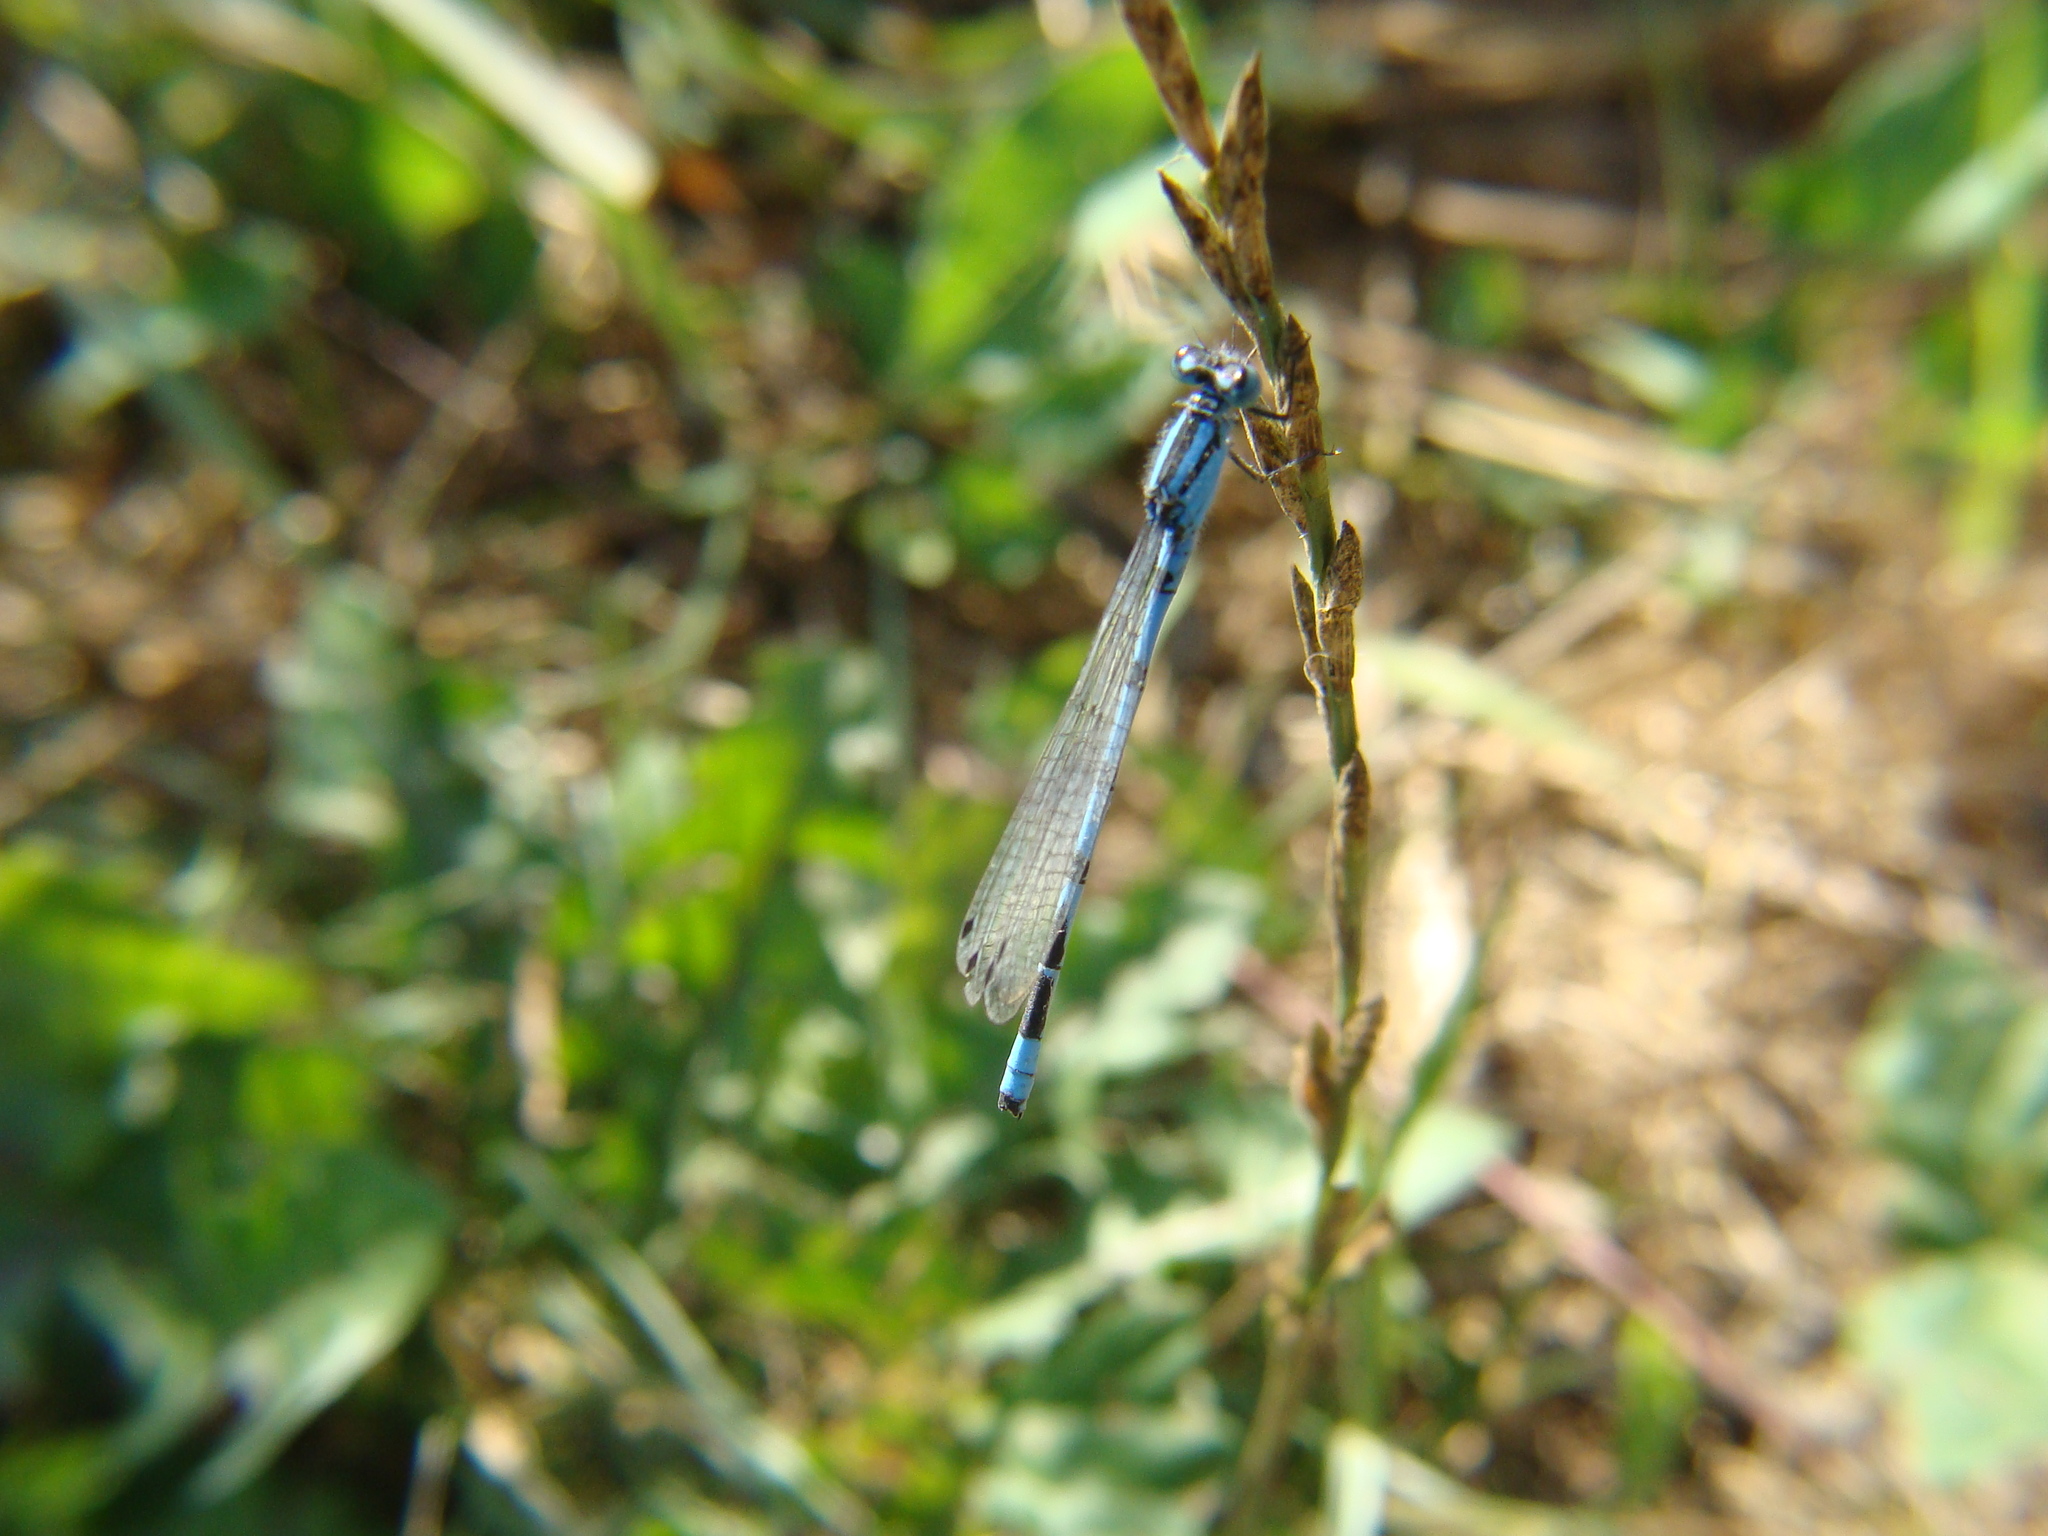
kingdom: Animalia
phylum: Arthropoda
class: Insecta
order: Odonata
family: Coenagrionidae
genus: Enallagma
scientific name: Enallagma cyathigerum
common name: Common blue damselfly
